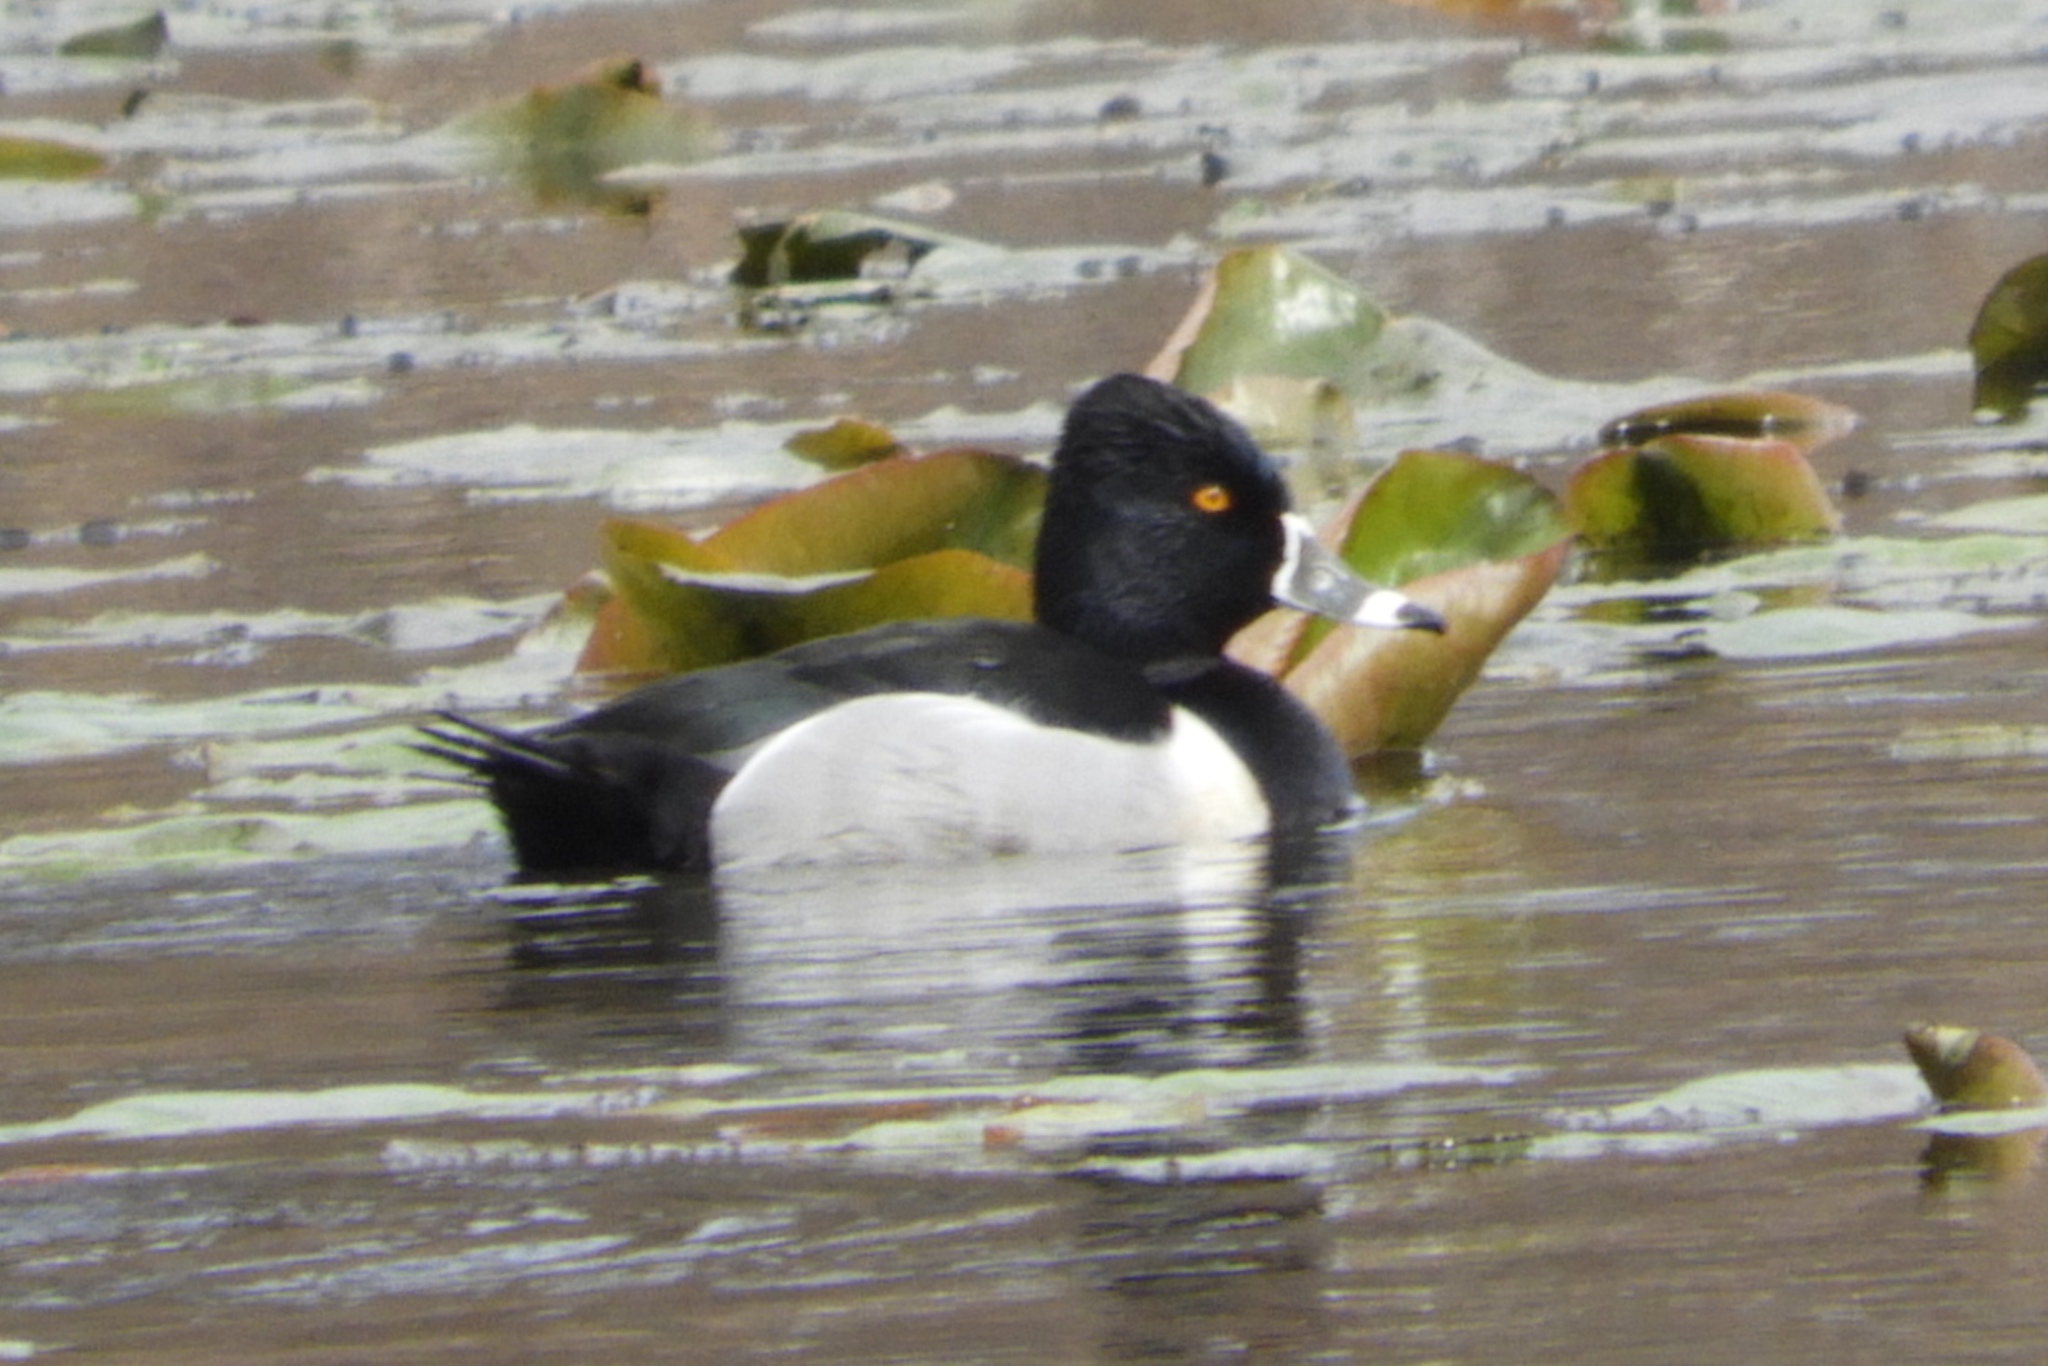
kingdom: Animalia
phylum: Chordata
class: Aves
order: Anseriformes
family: Anatidae
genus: Aythya
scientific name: Aythya collaris
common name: Ring-necked duck
